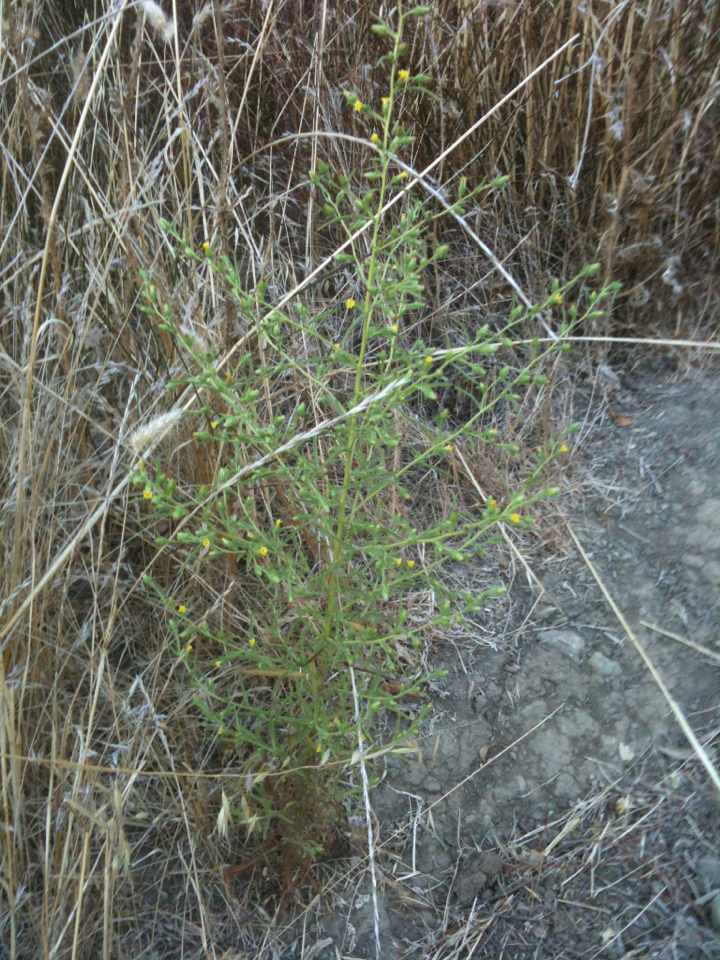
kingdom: Plantae
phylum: Tracheophyta
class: Magnoliopsida
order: Asterales
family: Asteraceae
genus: Dittrichia
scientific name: Dittrichia graveolens
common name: Stinking fleabane
